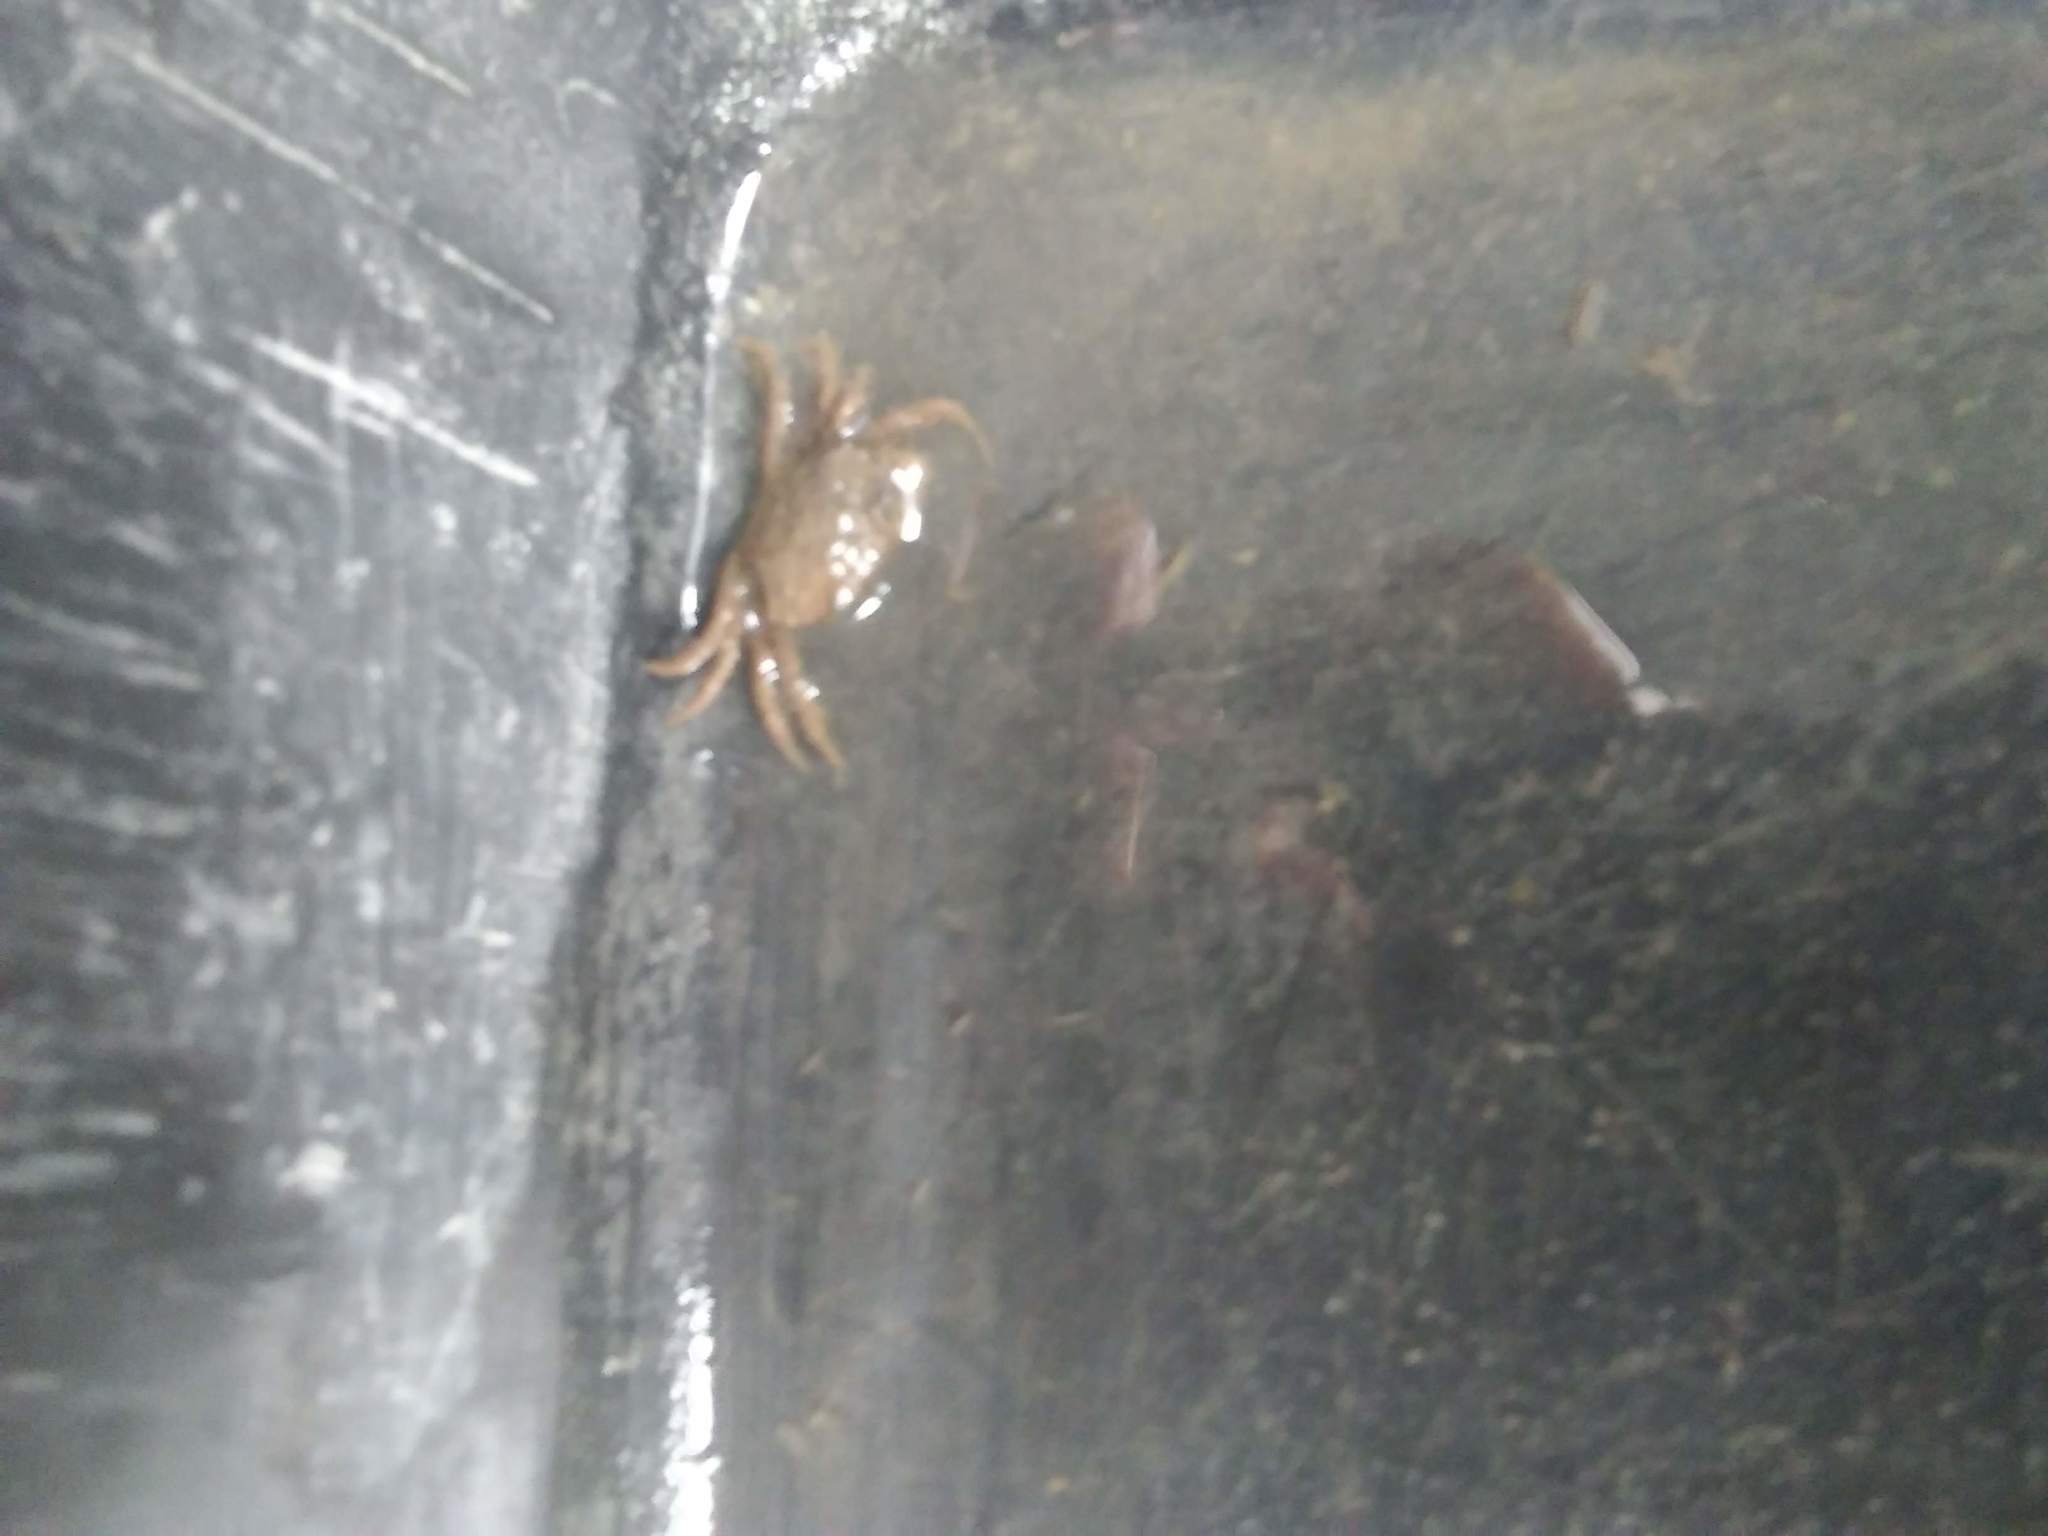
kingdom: Animalia
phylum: Arthropoda
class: Malacostraca
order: Decapoda
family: Varunidae
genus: Hemigrapsus
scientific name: Hemigrapsus sanguineus
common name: Asian shore crab
